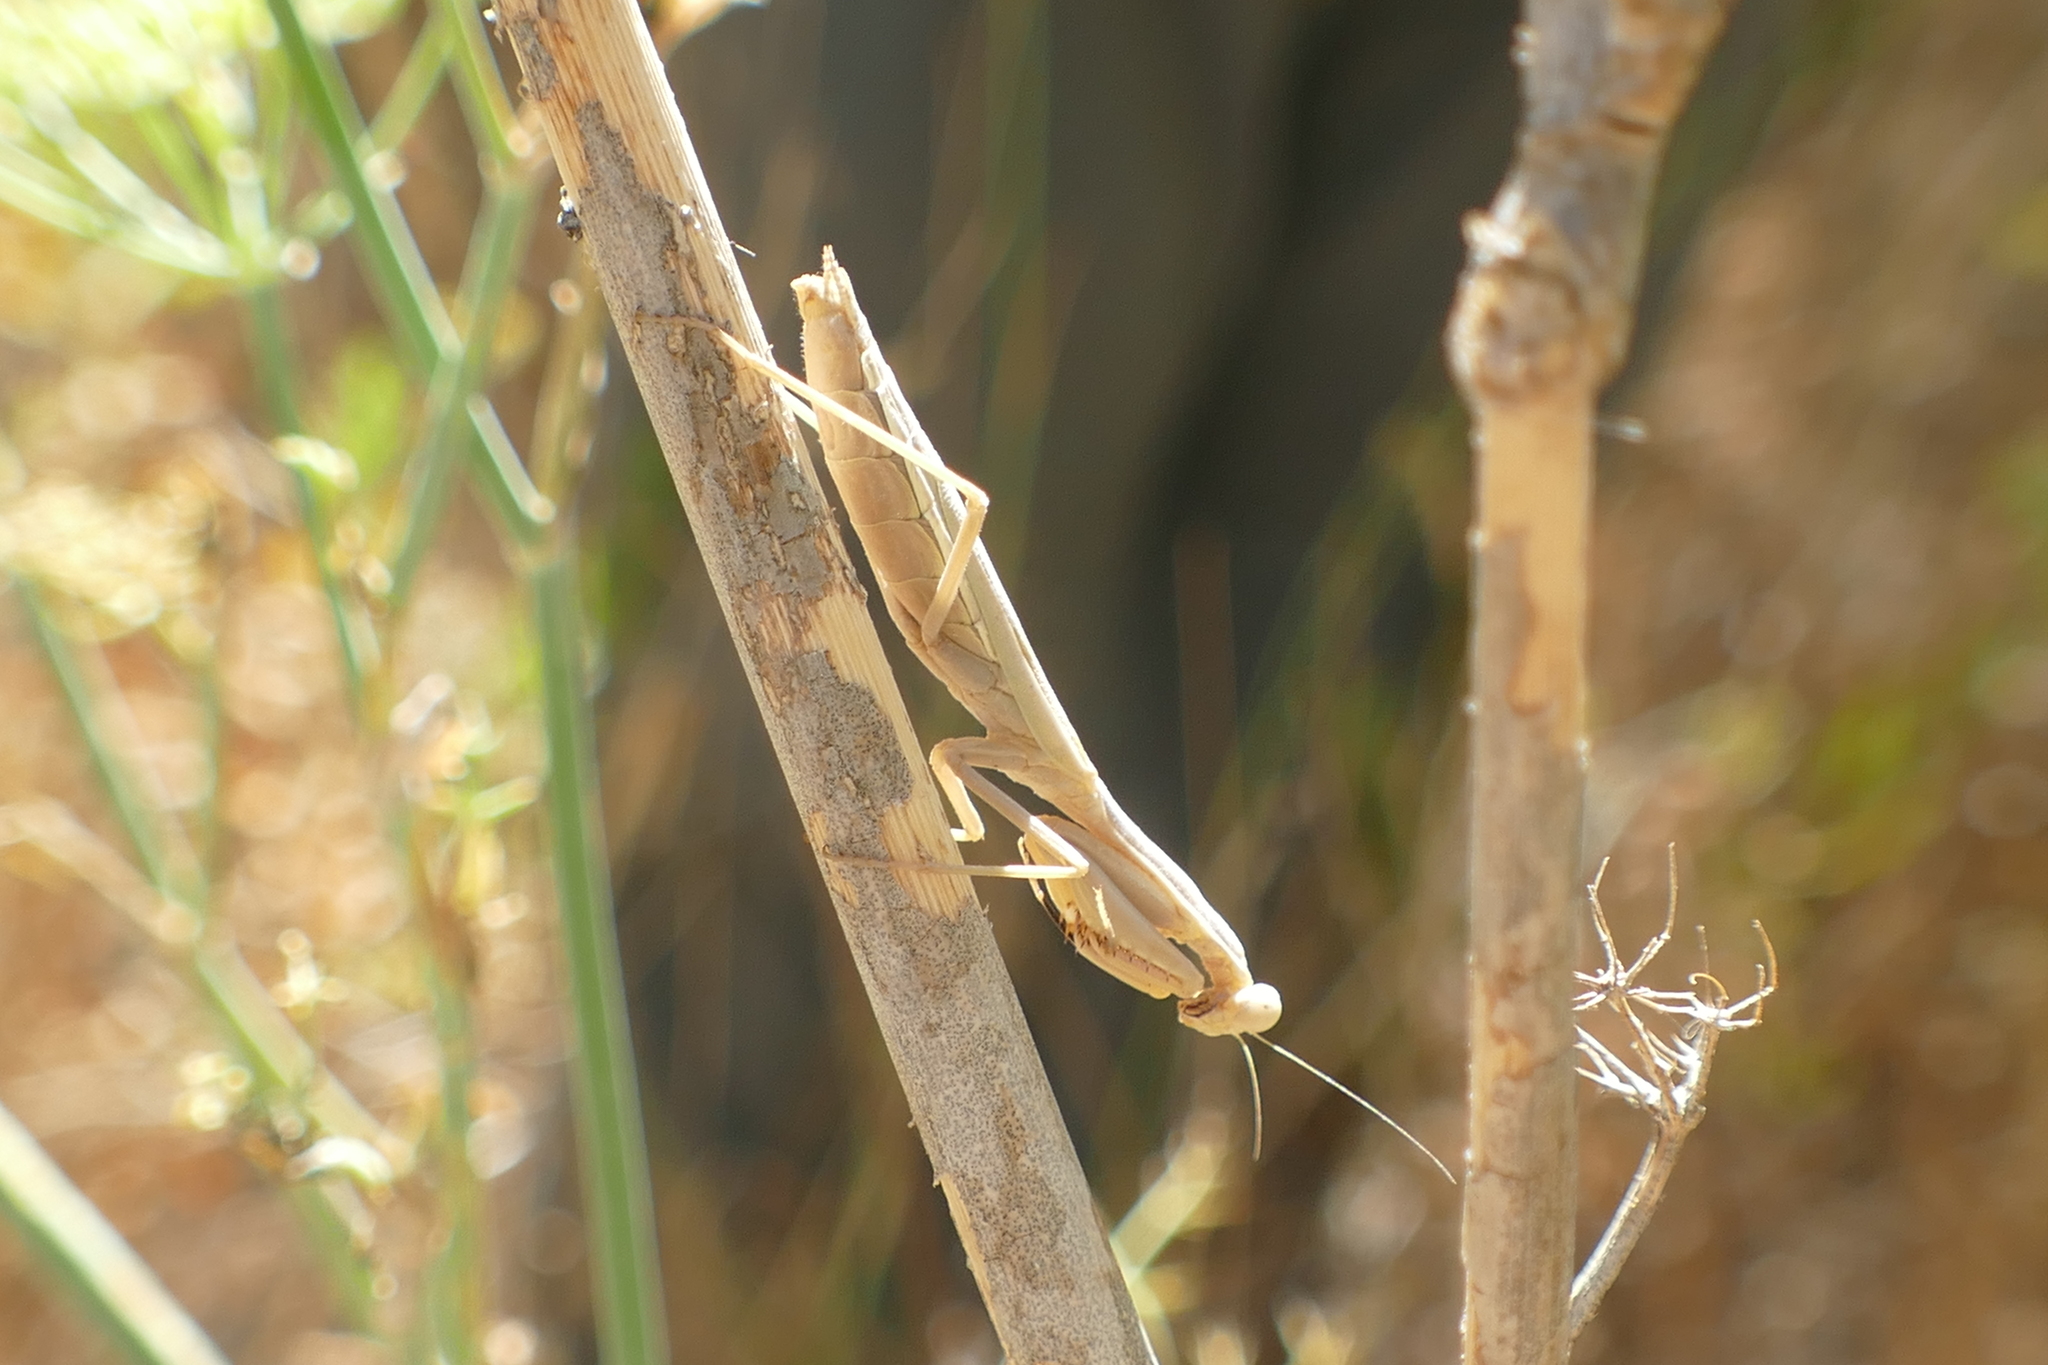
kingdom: Animalia
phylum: Arthropoda
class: Insecta
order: Mantodea
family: Eremiaphilidae
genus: Iris
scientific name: Iris oratoria
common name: Mediterranean mantis
